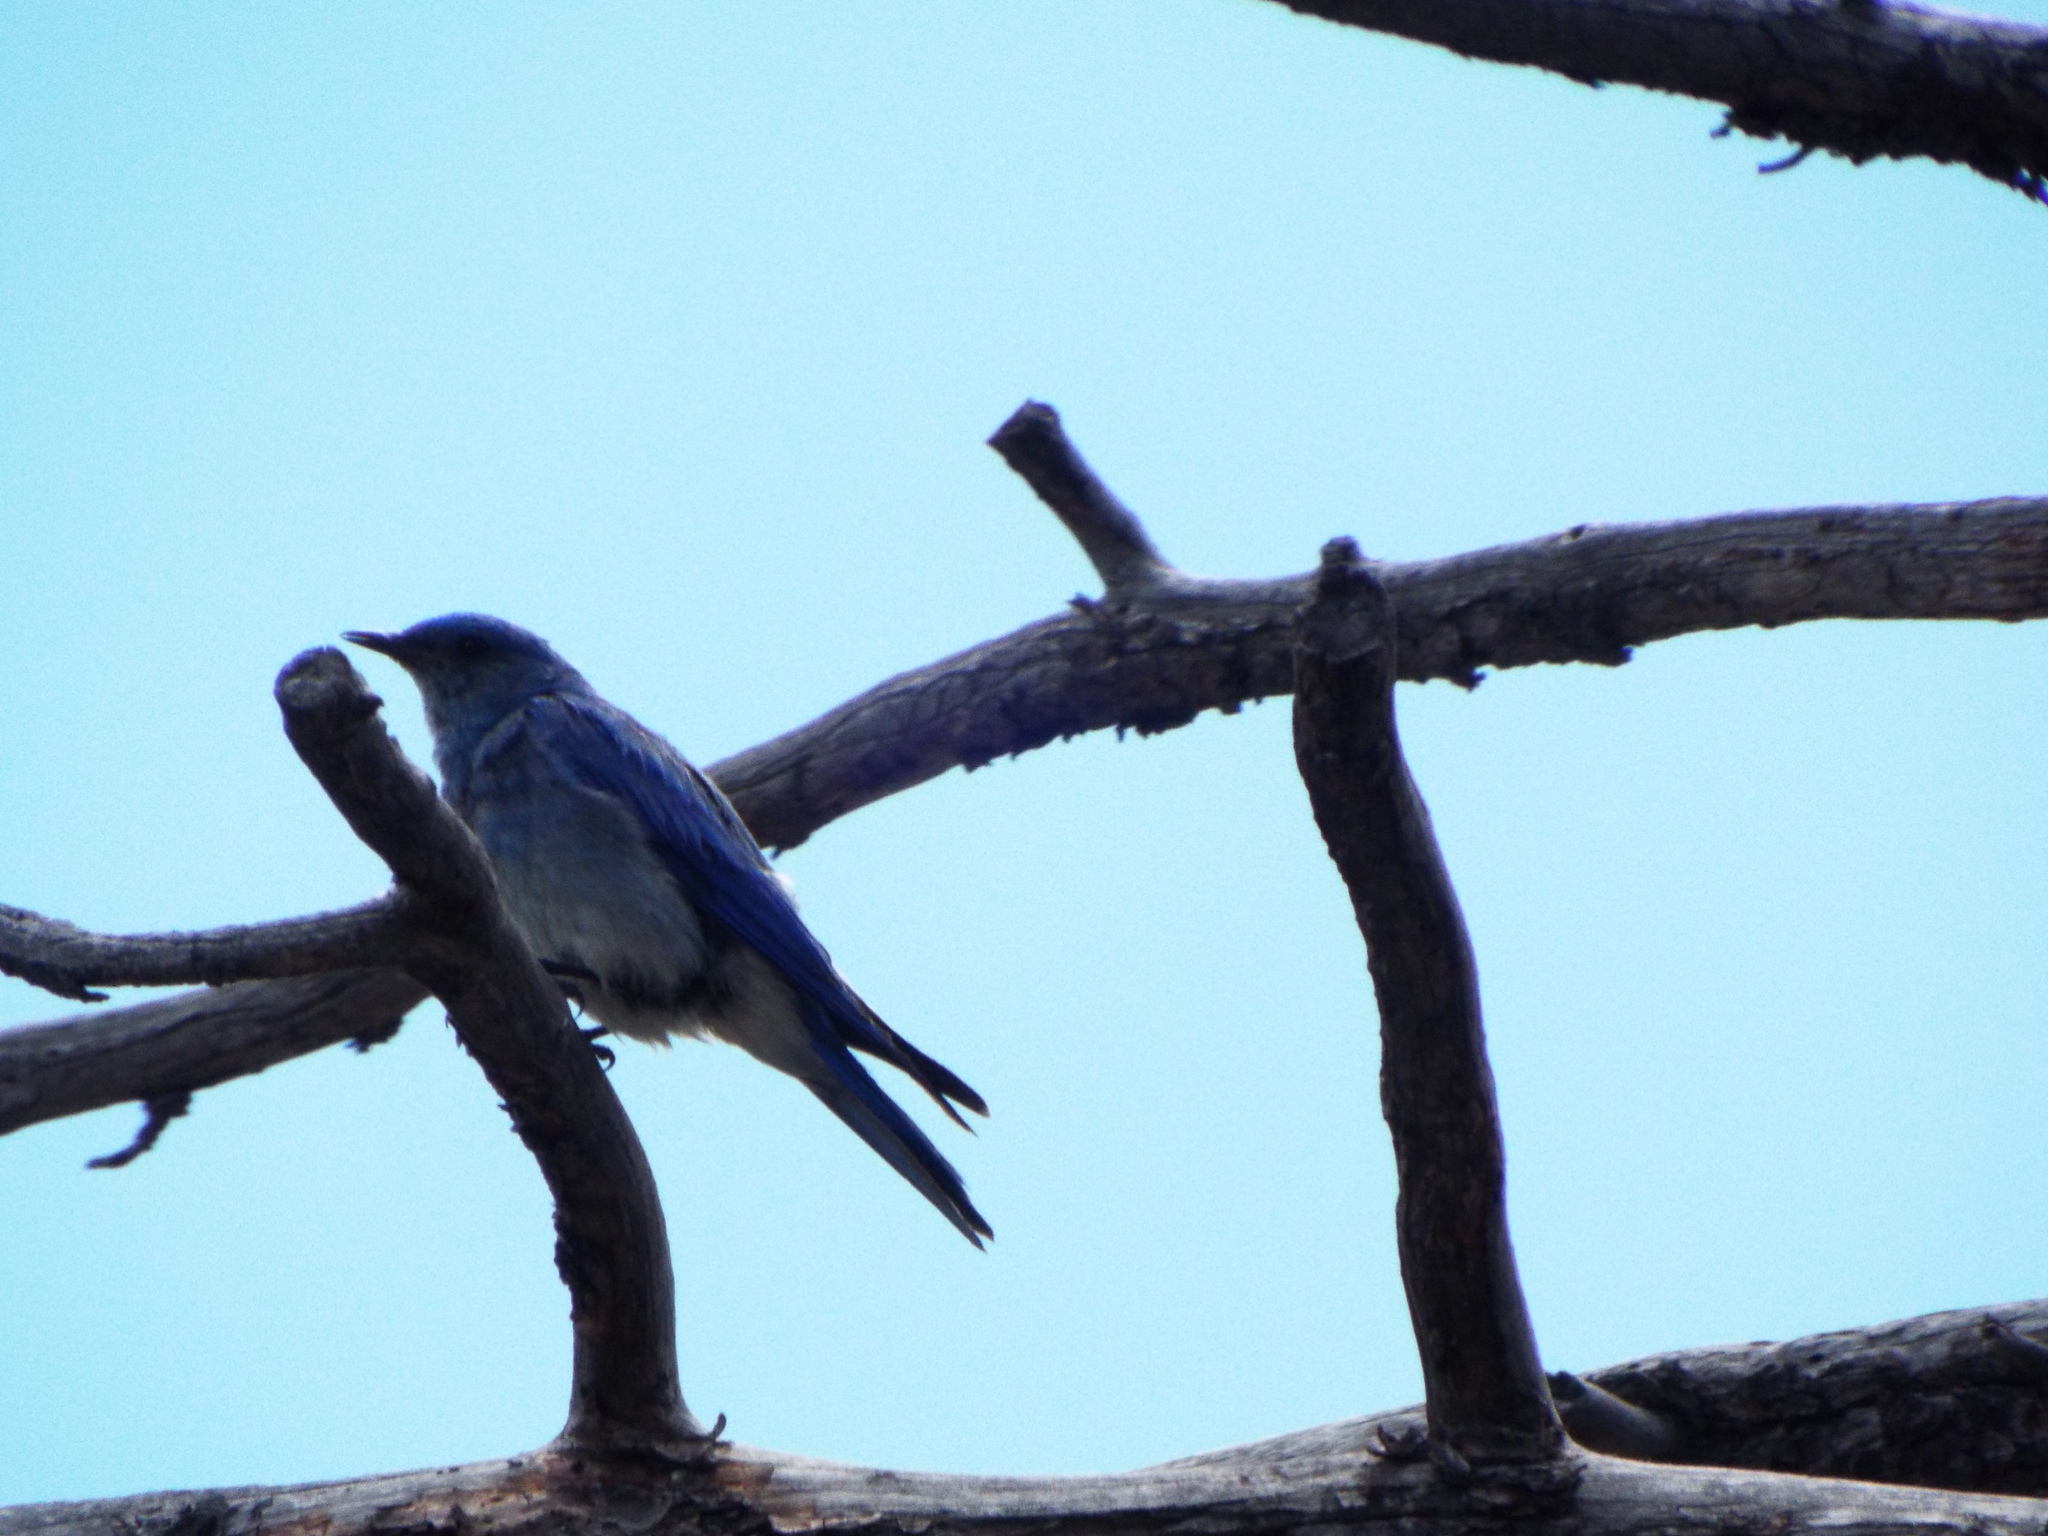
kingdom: Animalia
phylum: Chordata
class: Aves
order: Passeriformes
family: Turdidae
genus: Sialia
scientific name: Sialia currucoides
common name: Mountain bluebird
